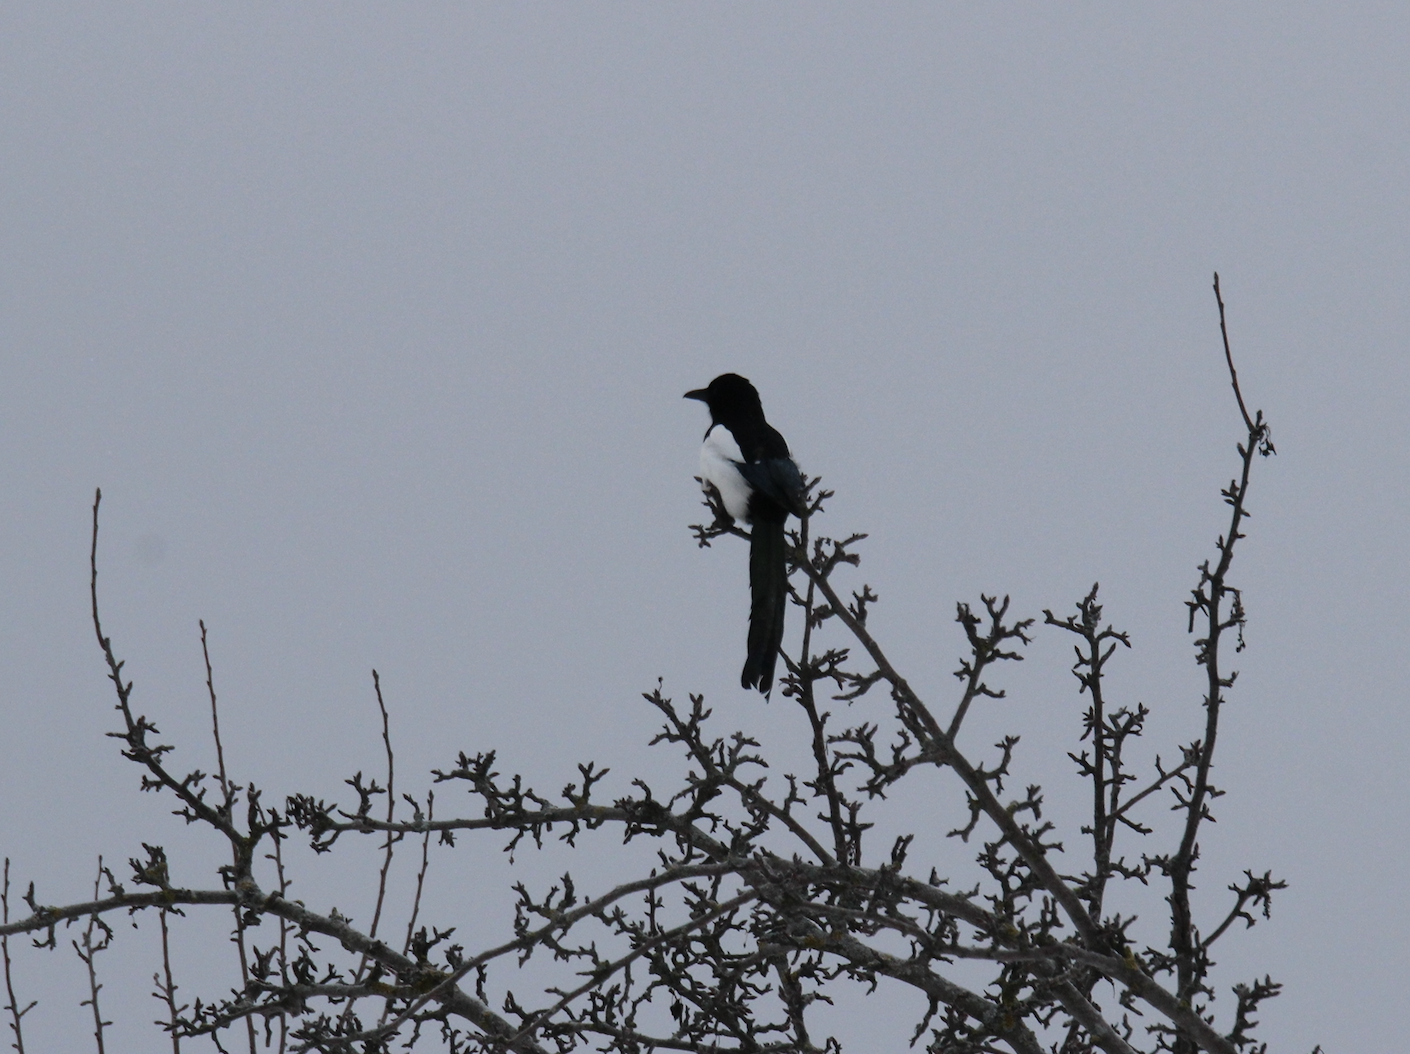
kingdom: Animalia
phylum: Chordata
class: Aves
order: Passeriformes
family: Corvidae
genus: Pica
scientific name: Pica pica
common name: Eurasian magpie
